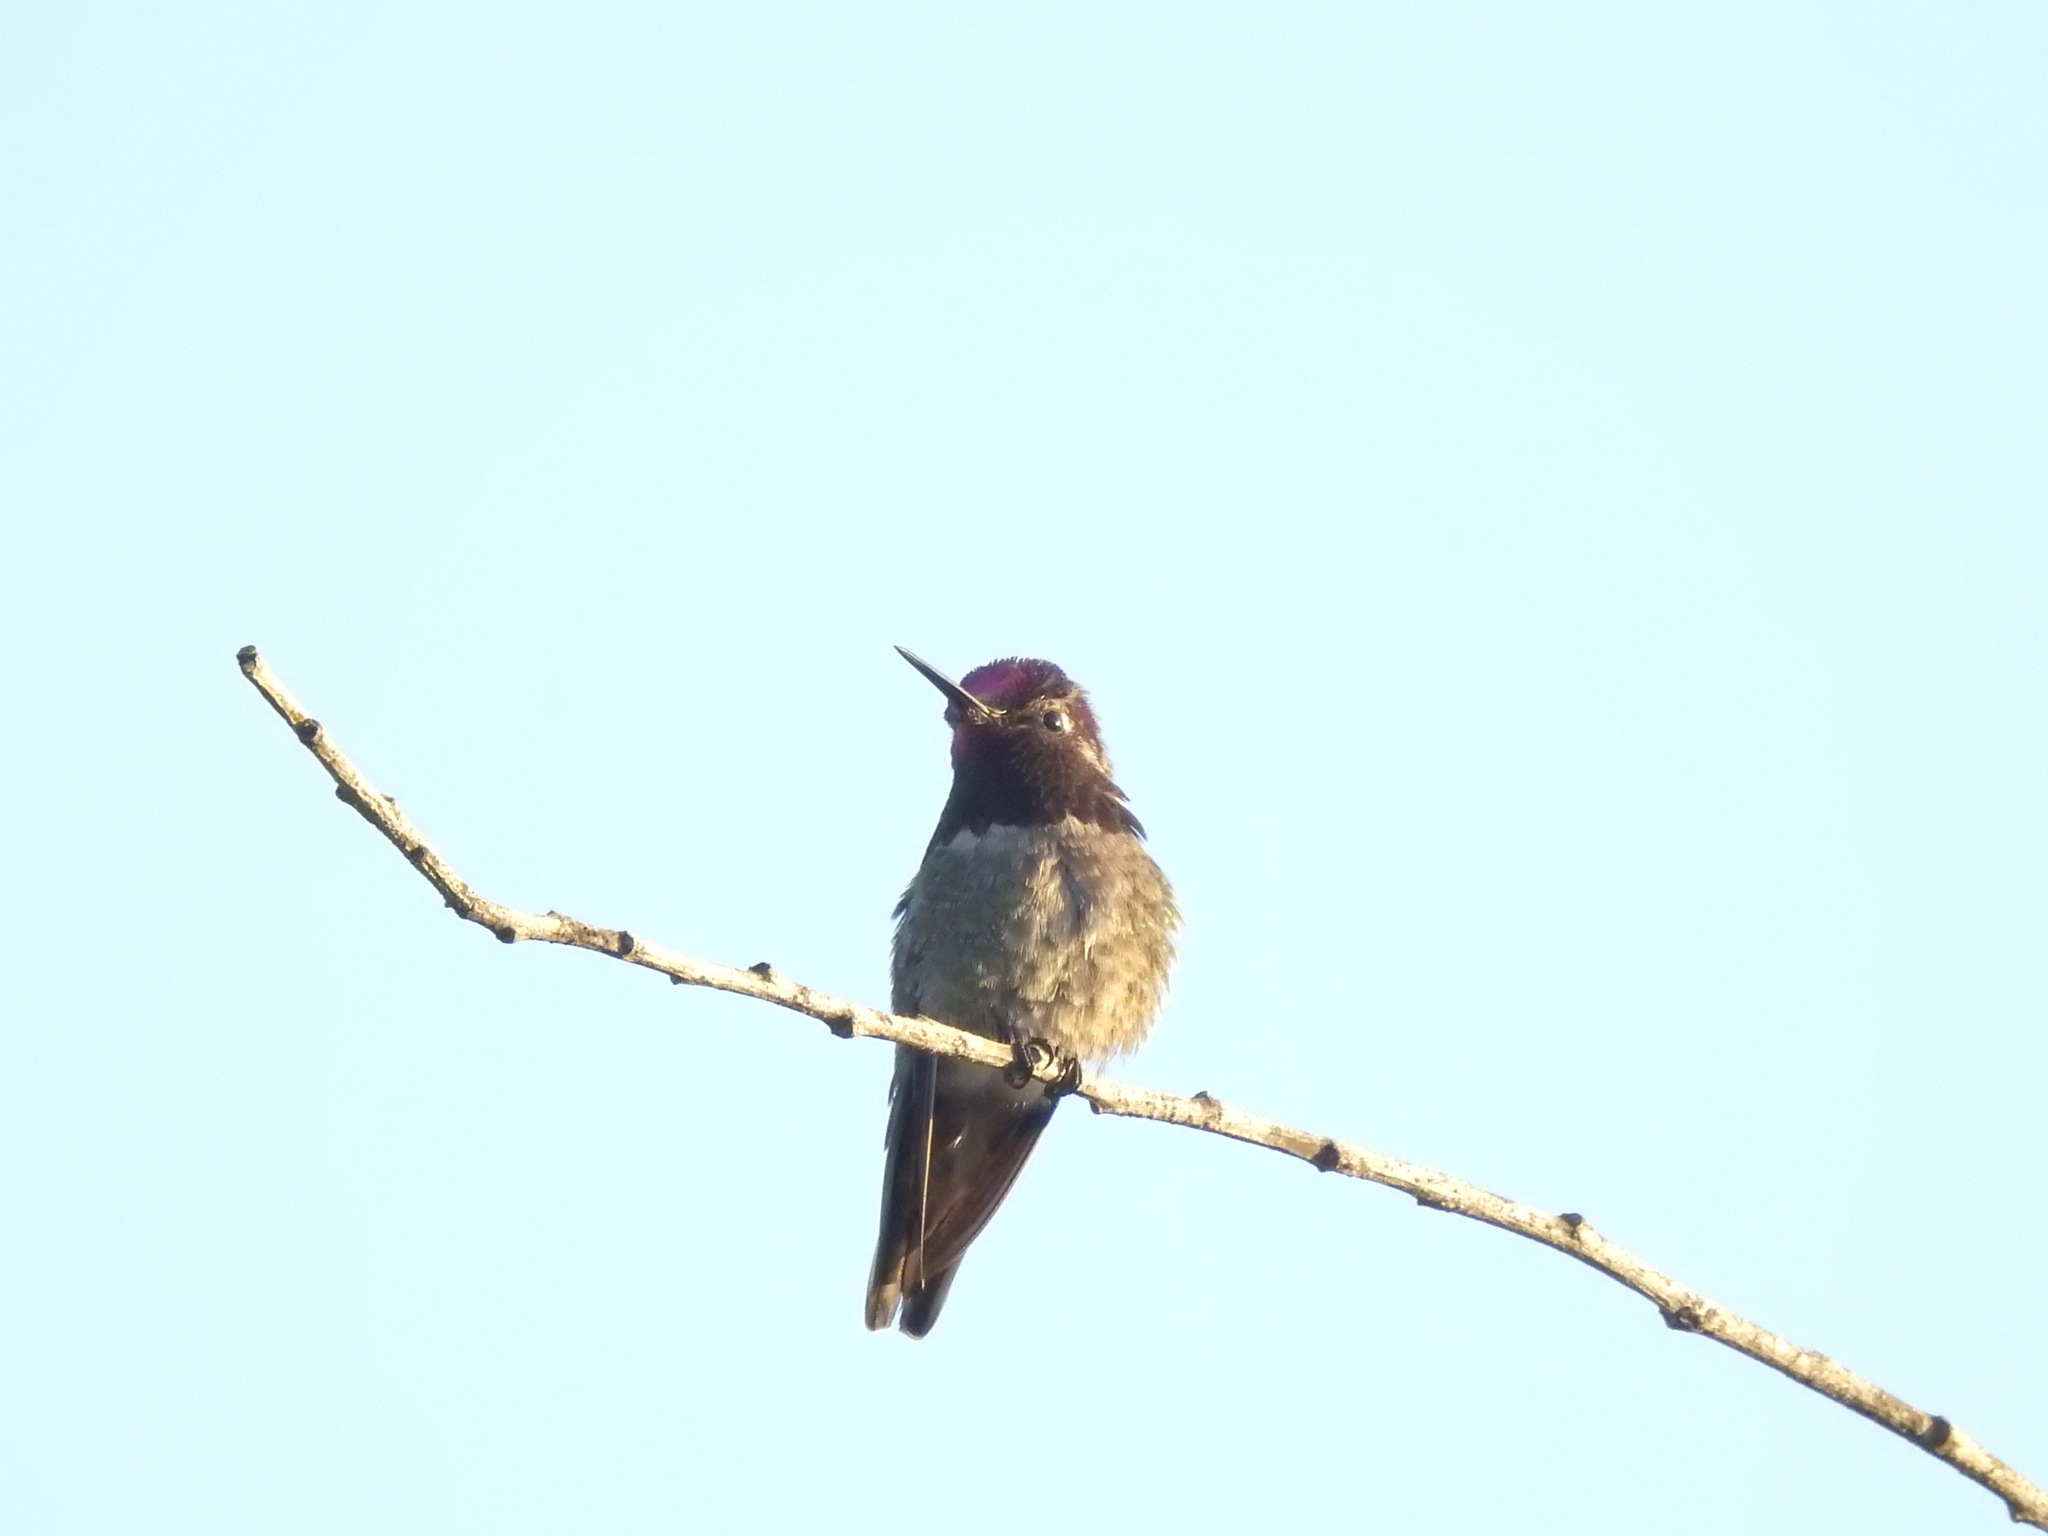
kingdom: Animalia
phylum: Chordata
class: Aves
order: Apodiformes
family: Trochilidae
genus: Calypte
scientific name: Calypte anna
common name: Anna's hummingbird
